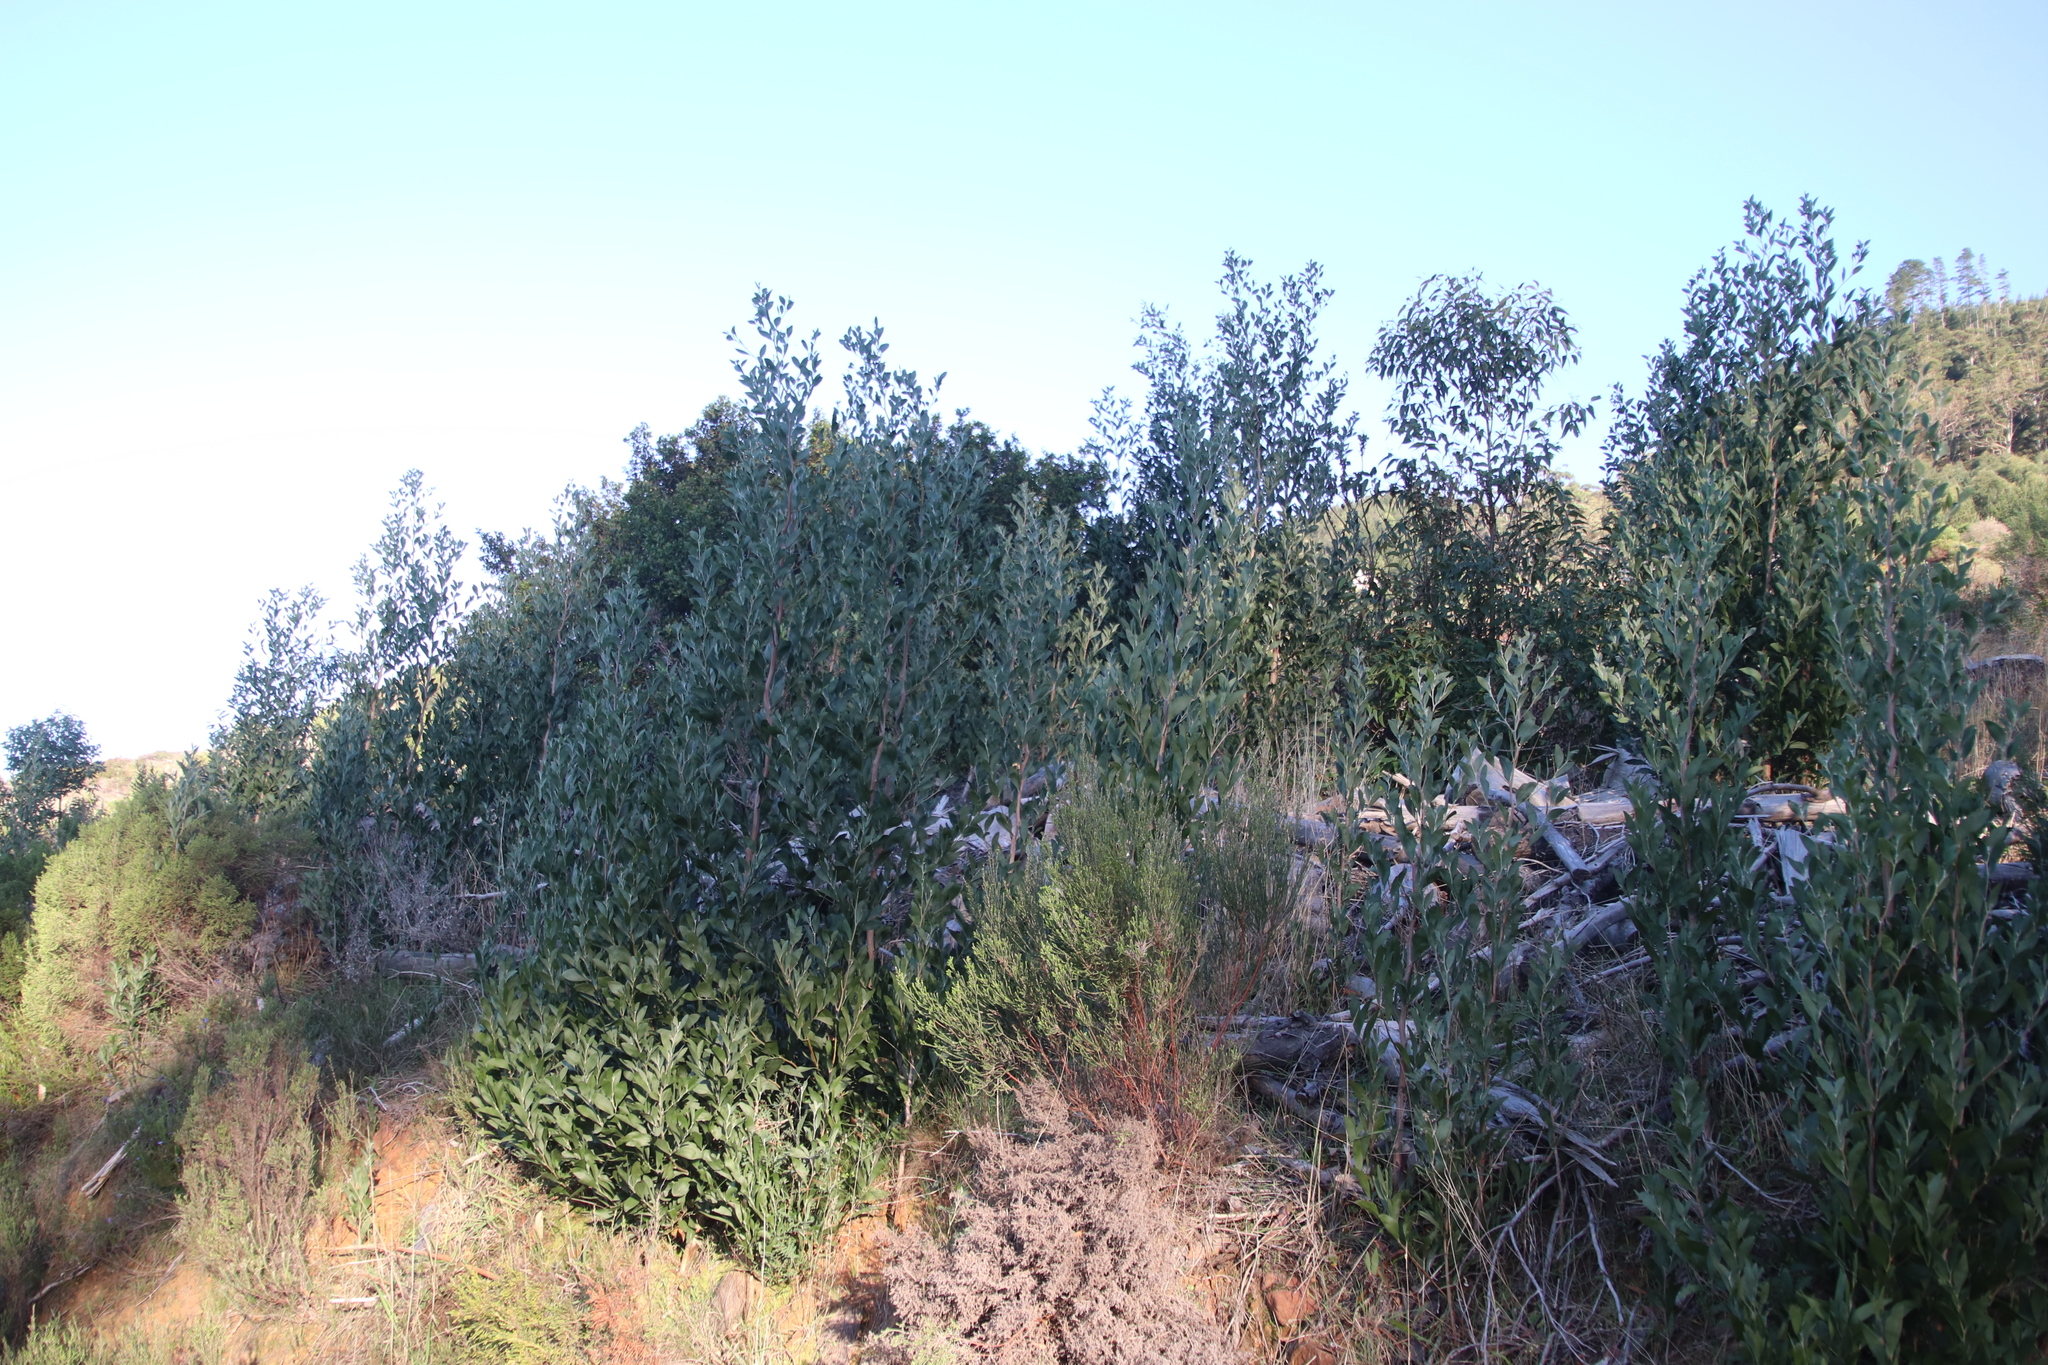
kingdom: Plantae
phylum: Tracheophyta
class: Magnoliopsida
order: Fabales
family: Fabaceae
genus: Acacia
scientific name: Acacia melanoxylon
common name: Blackwood
